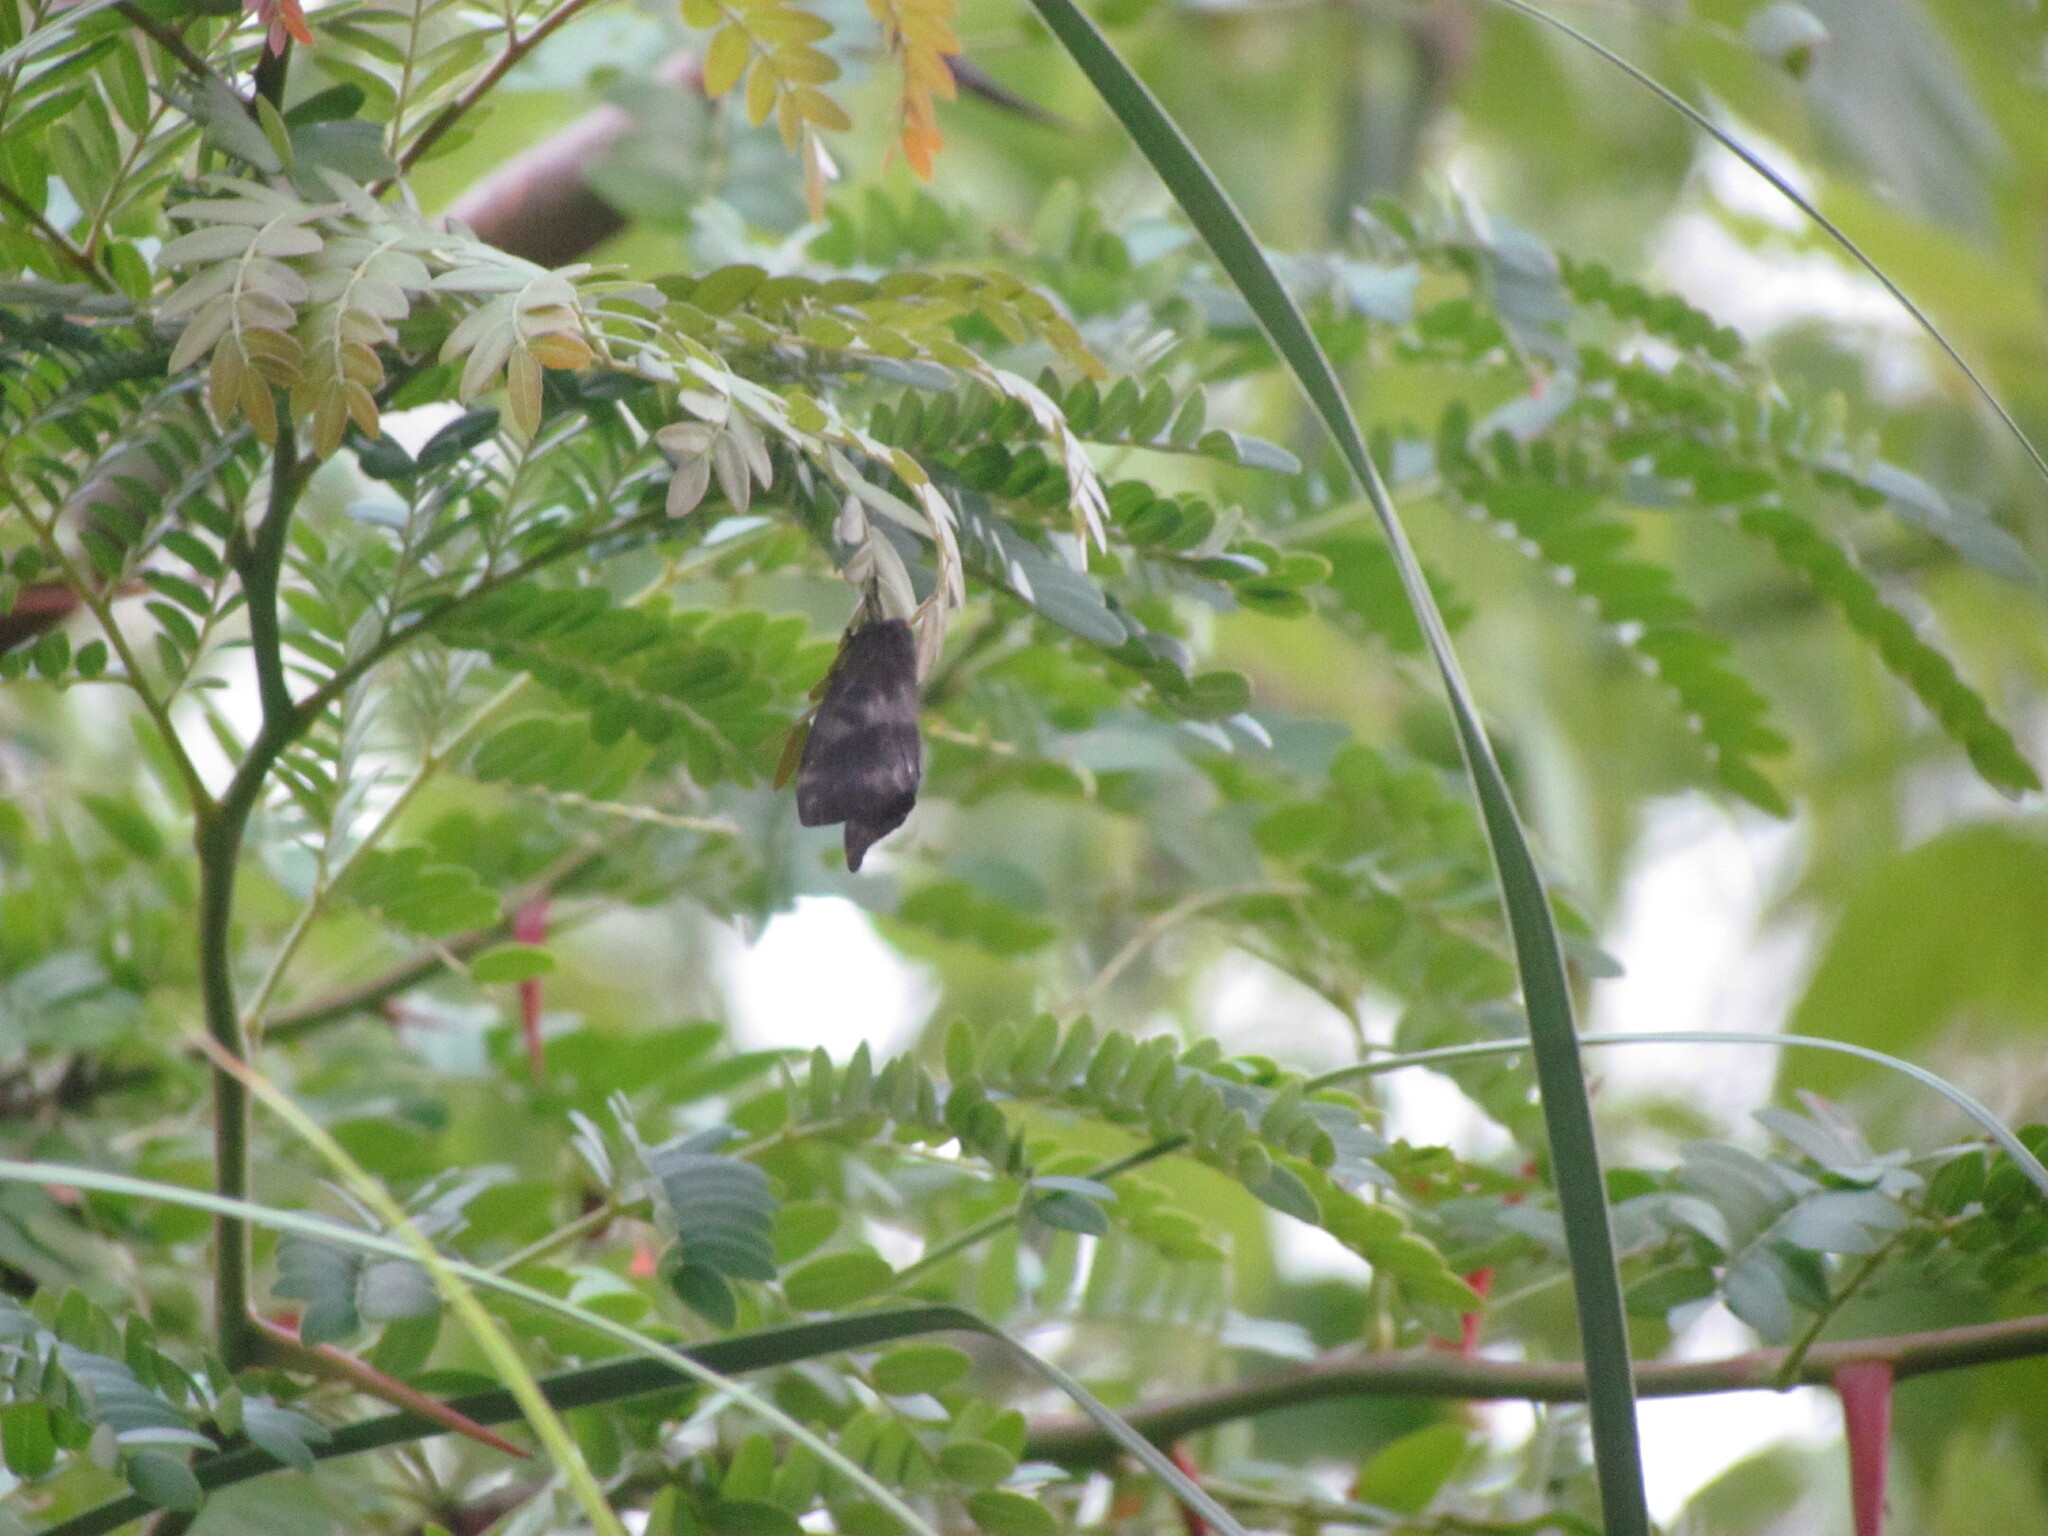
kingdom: Animalia
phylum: Arthropoda
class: Insecta
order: Lepidoptera
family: Saturniidae
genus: Hylesia
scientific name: Hylesia nigricans
